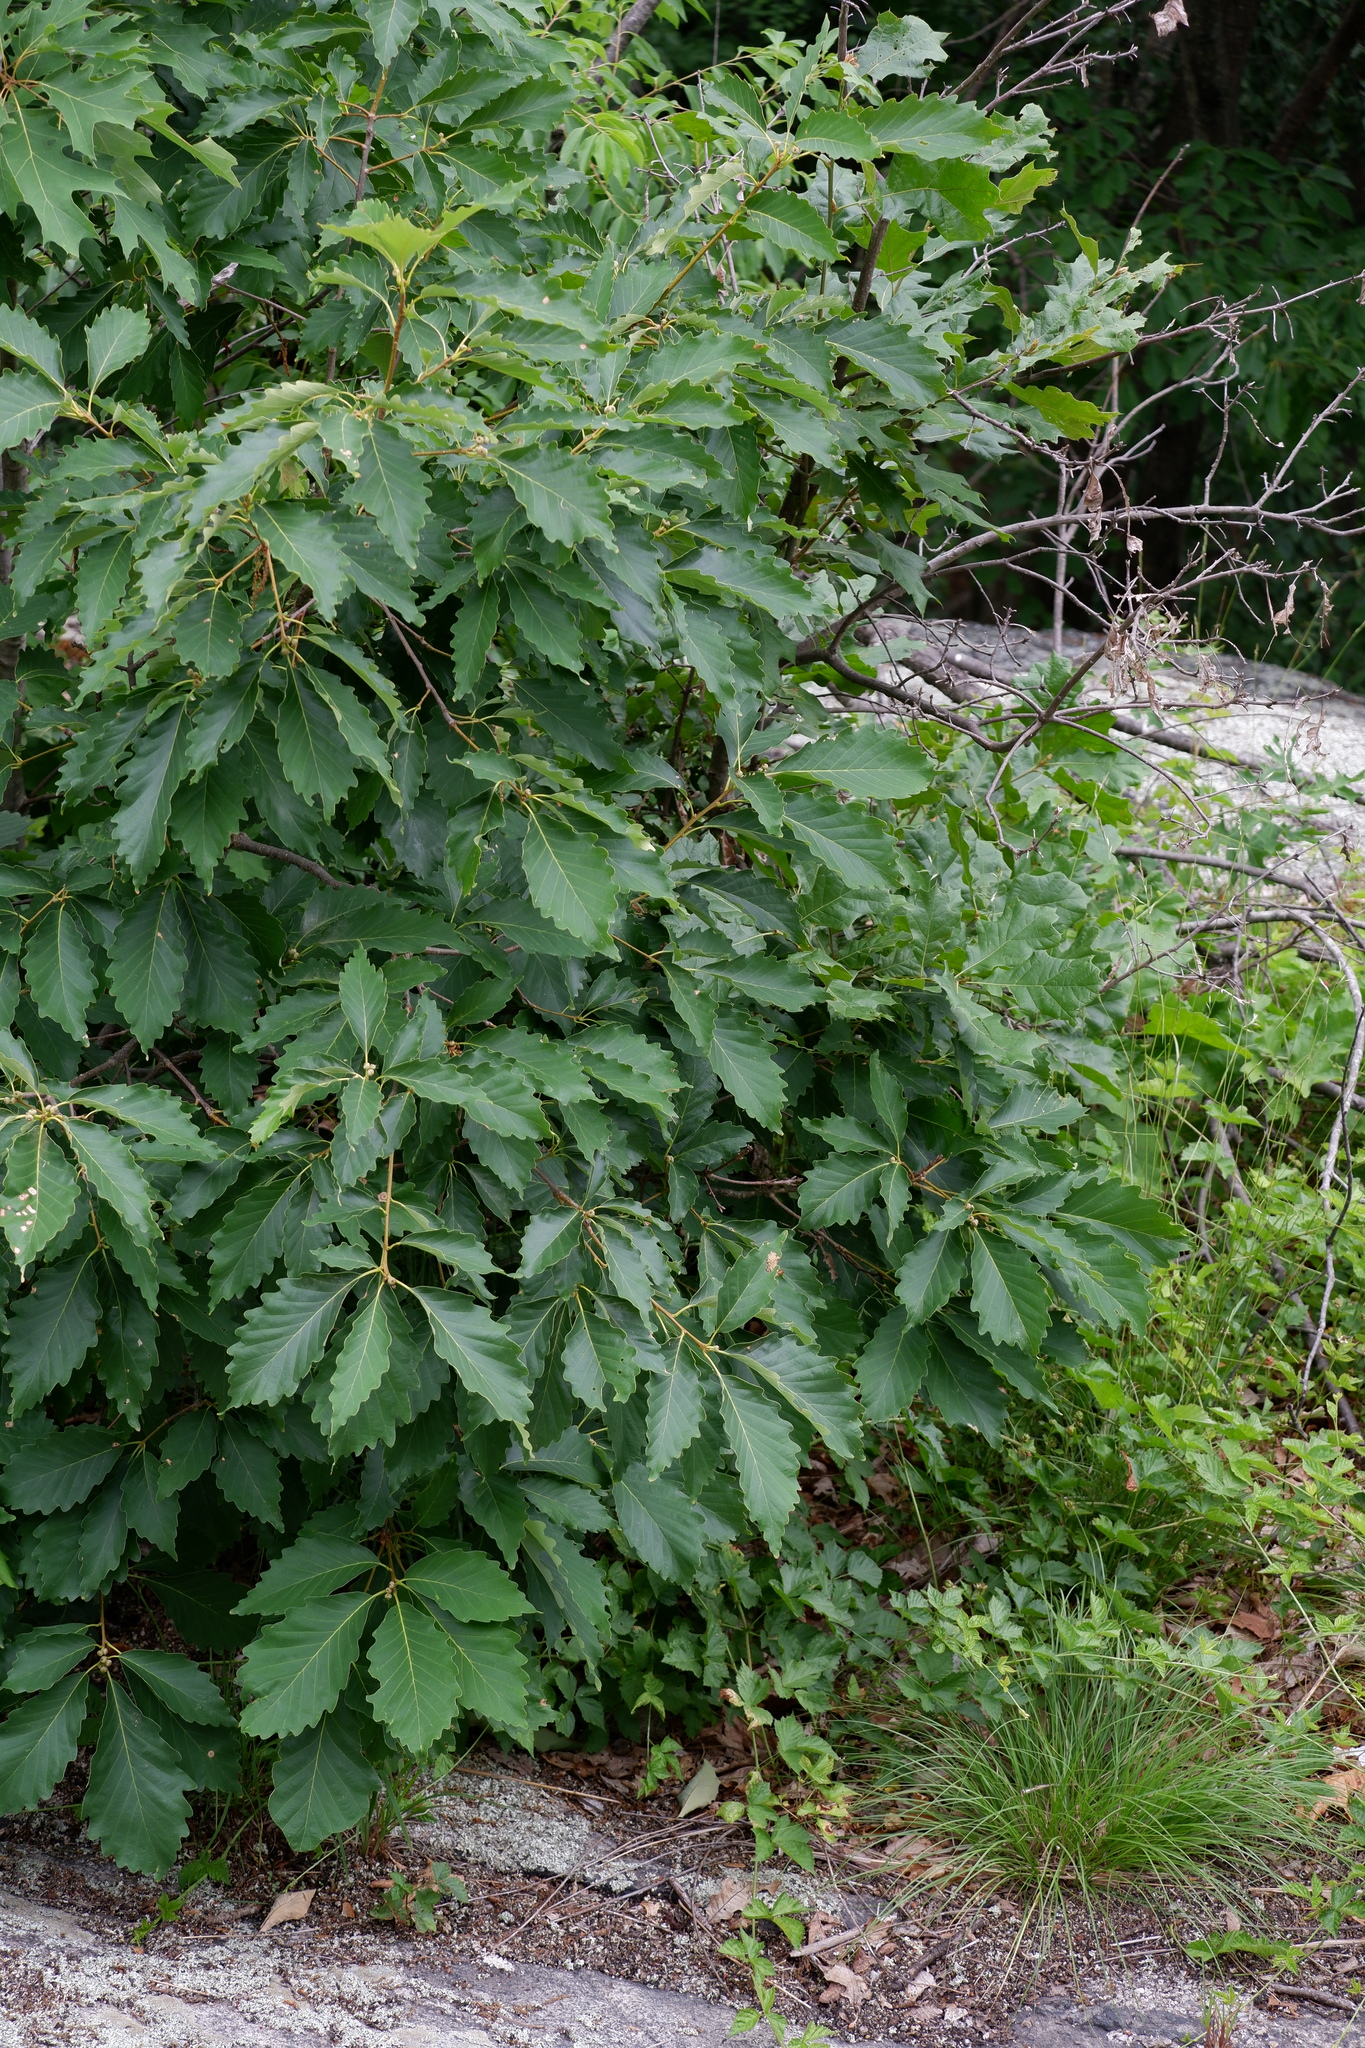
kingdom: Plantae
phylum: Tracheophyta
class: Magnoliopsida
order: Fagales
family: Fagaceae
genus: Quercus
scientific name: Quercus montana
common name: Chestnut oak
